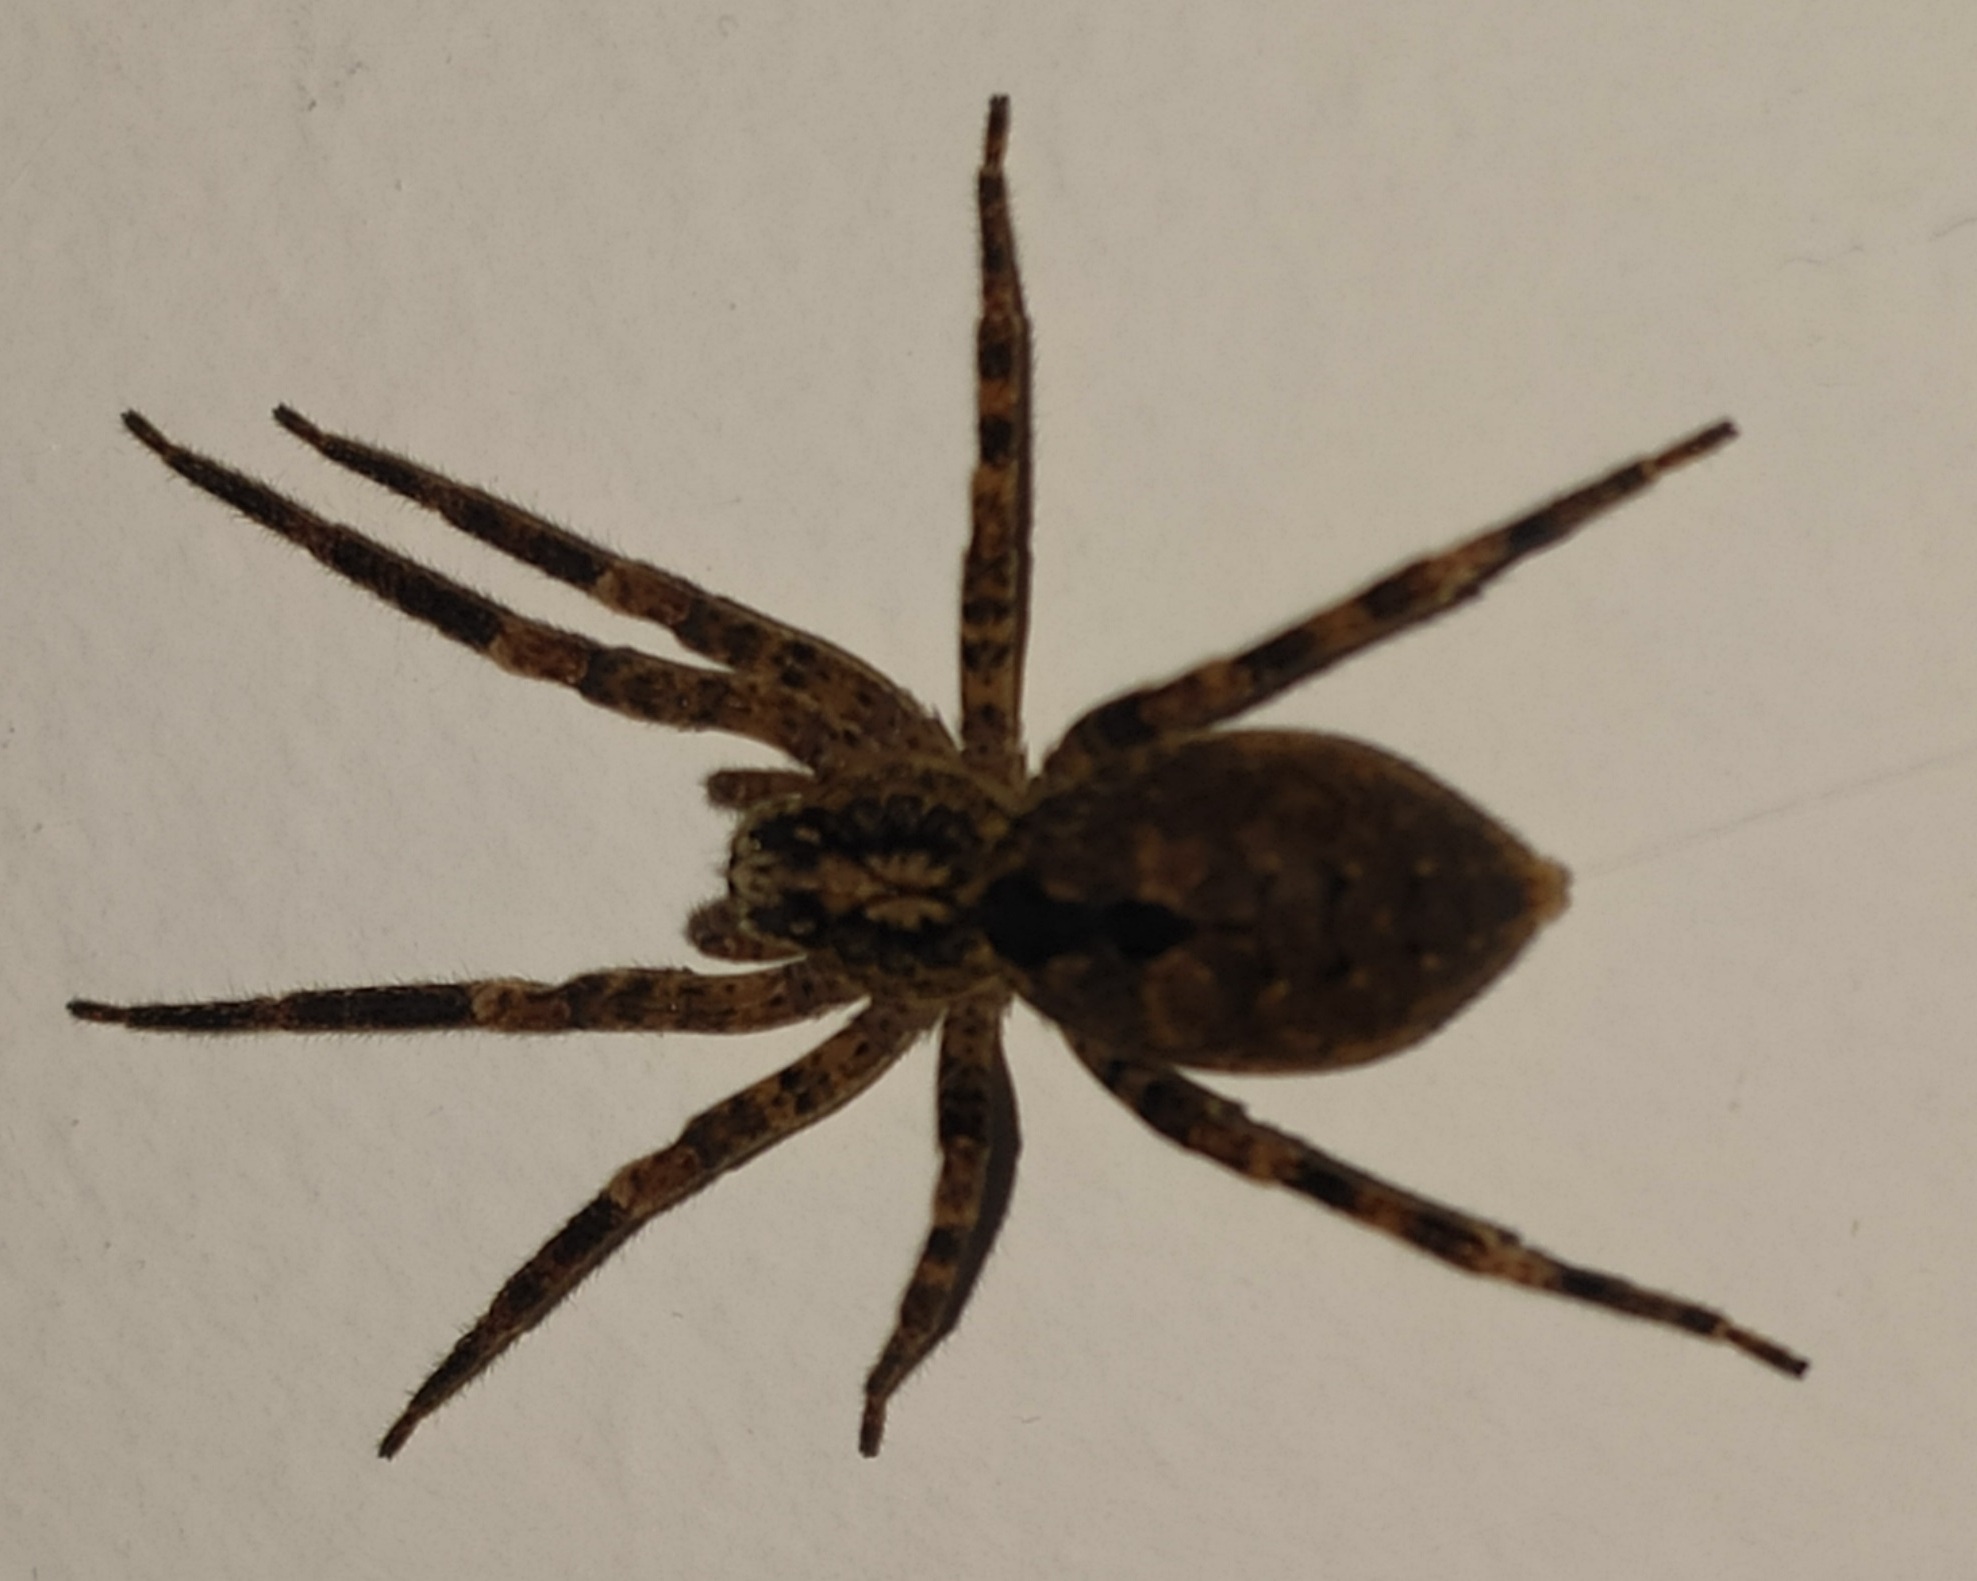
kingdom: Animalia
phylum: Arthropoda
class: Arachnida
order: Araneae
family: Zoropsidae
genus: Zoropsis
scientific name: Zoropsis spinimana
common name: Zoropsid spider
